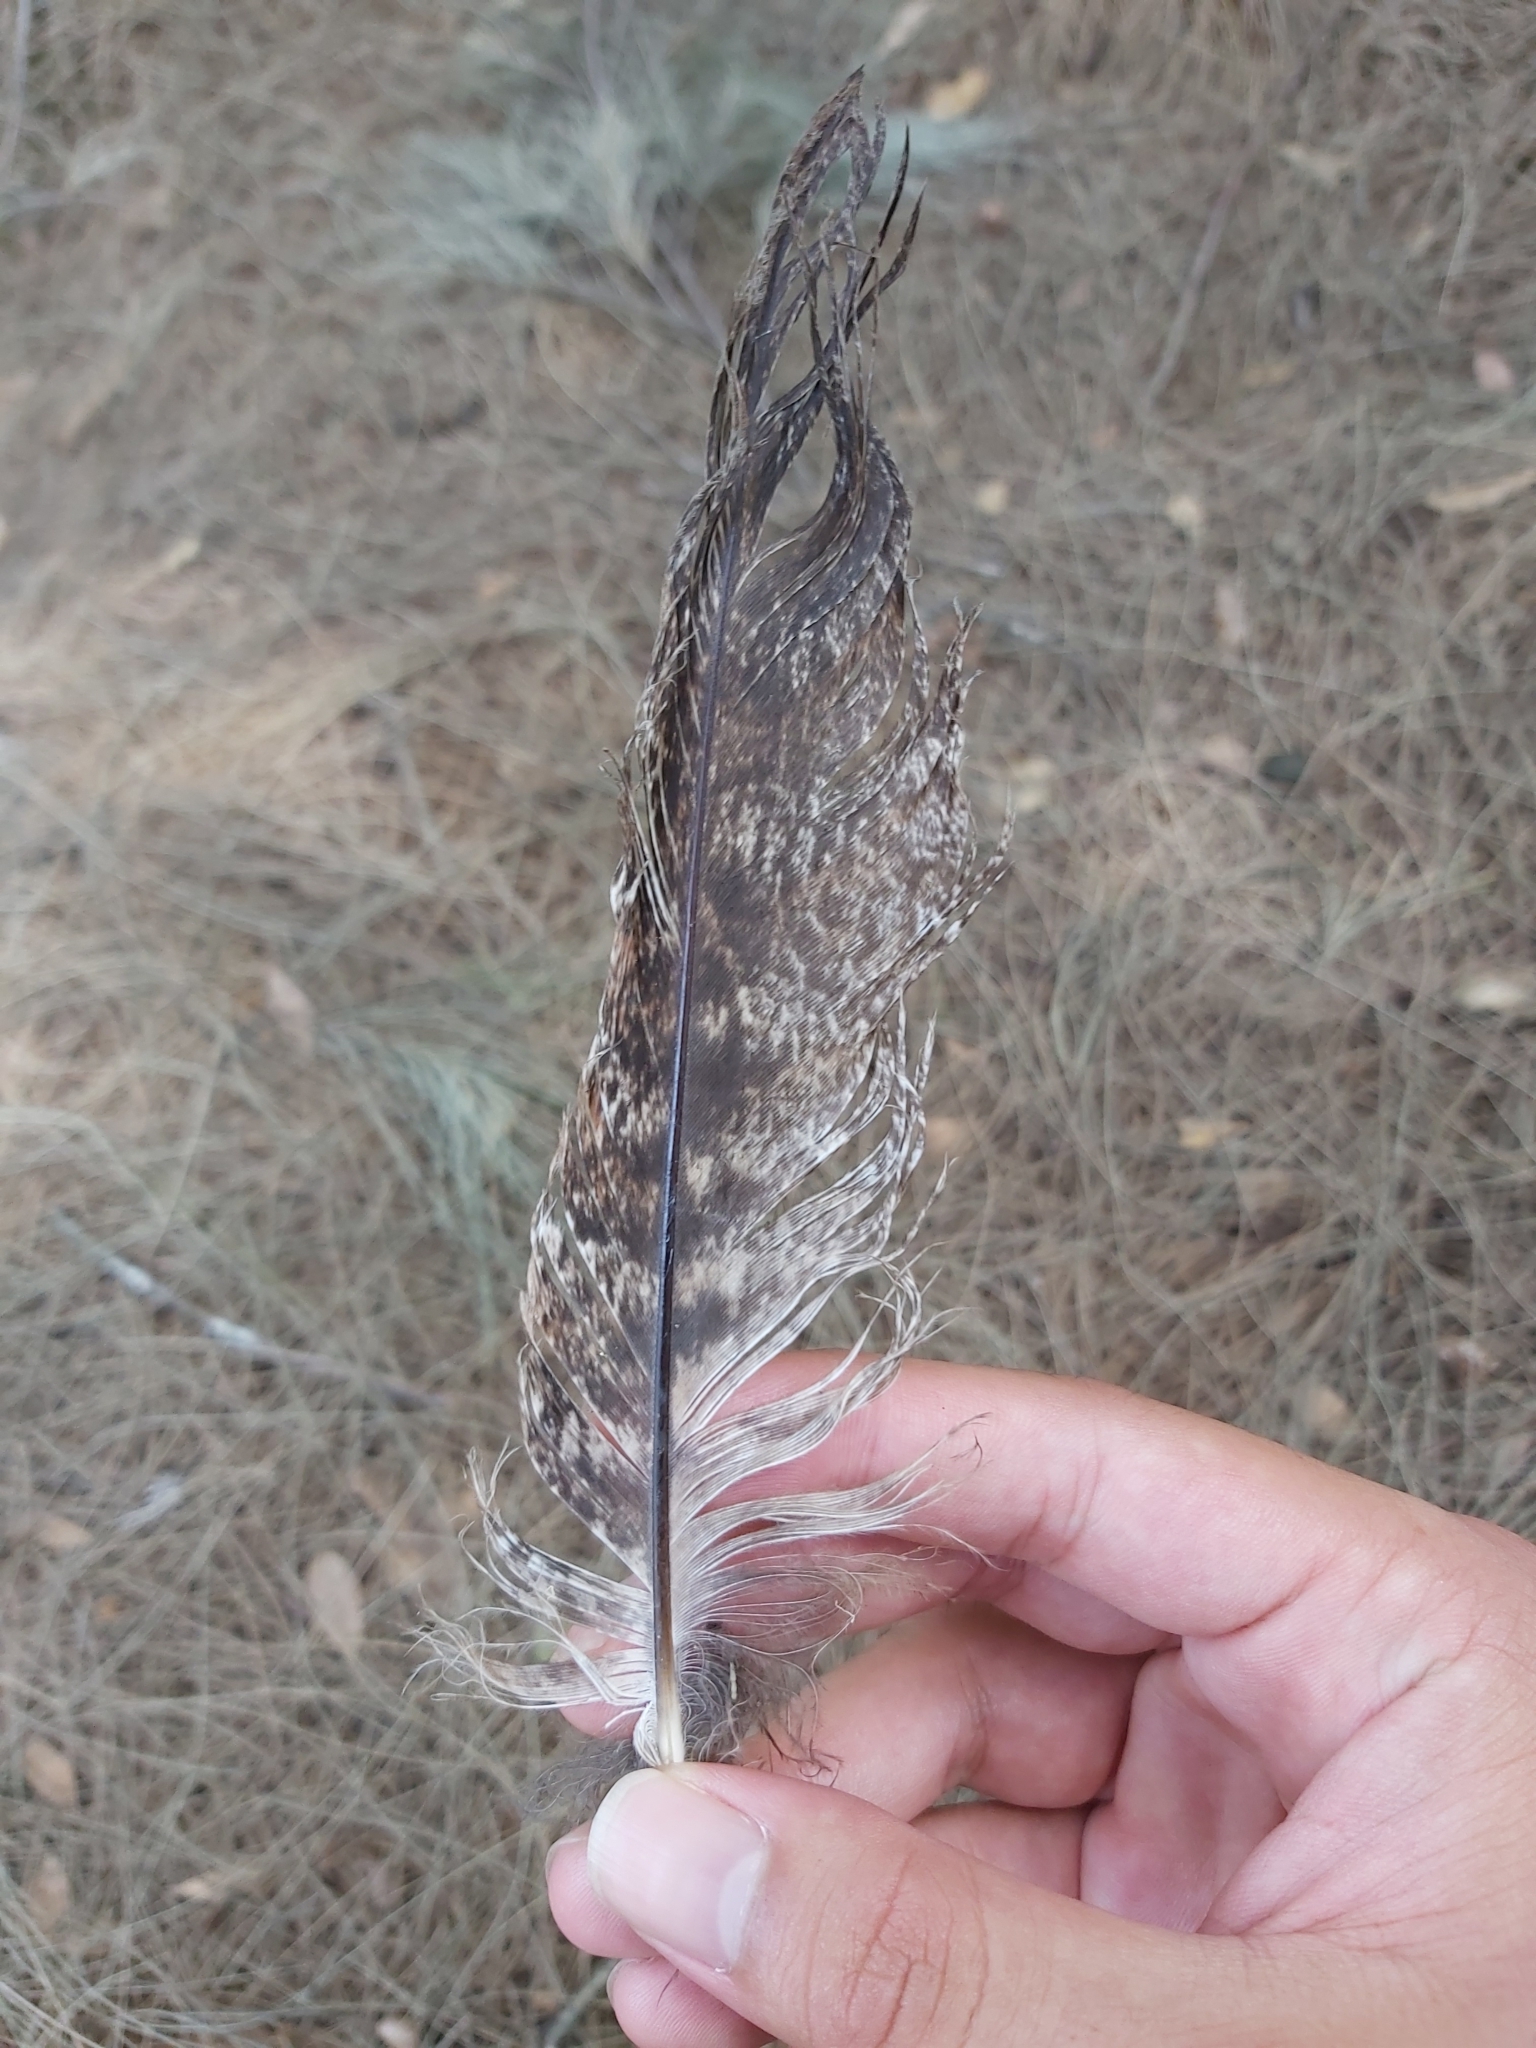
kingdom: Animalia
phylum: Chordata
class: Aves
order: Caprimulgiformes
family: Podargidae
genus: Podargus
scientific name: Podargus strigoides
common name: Tawny frogmouth
